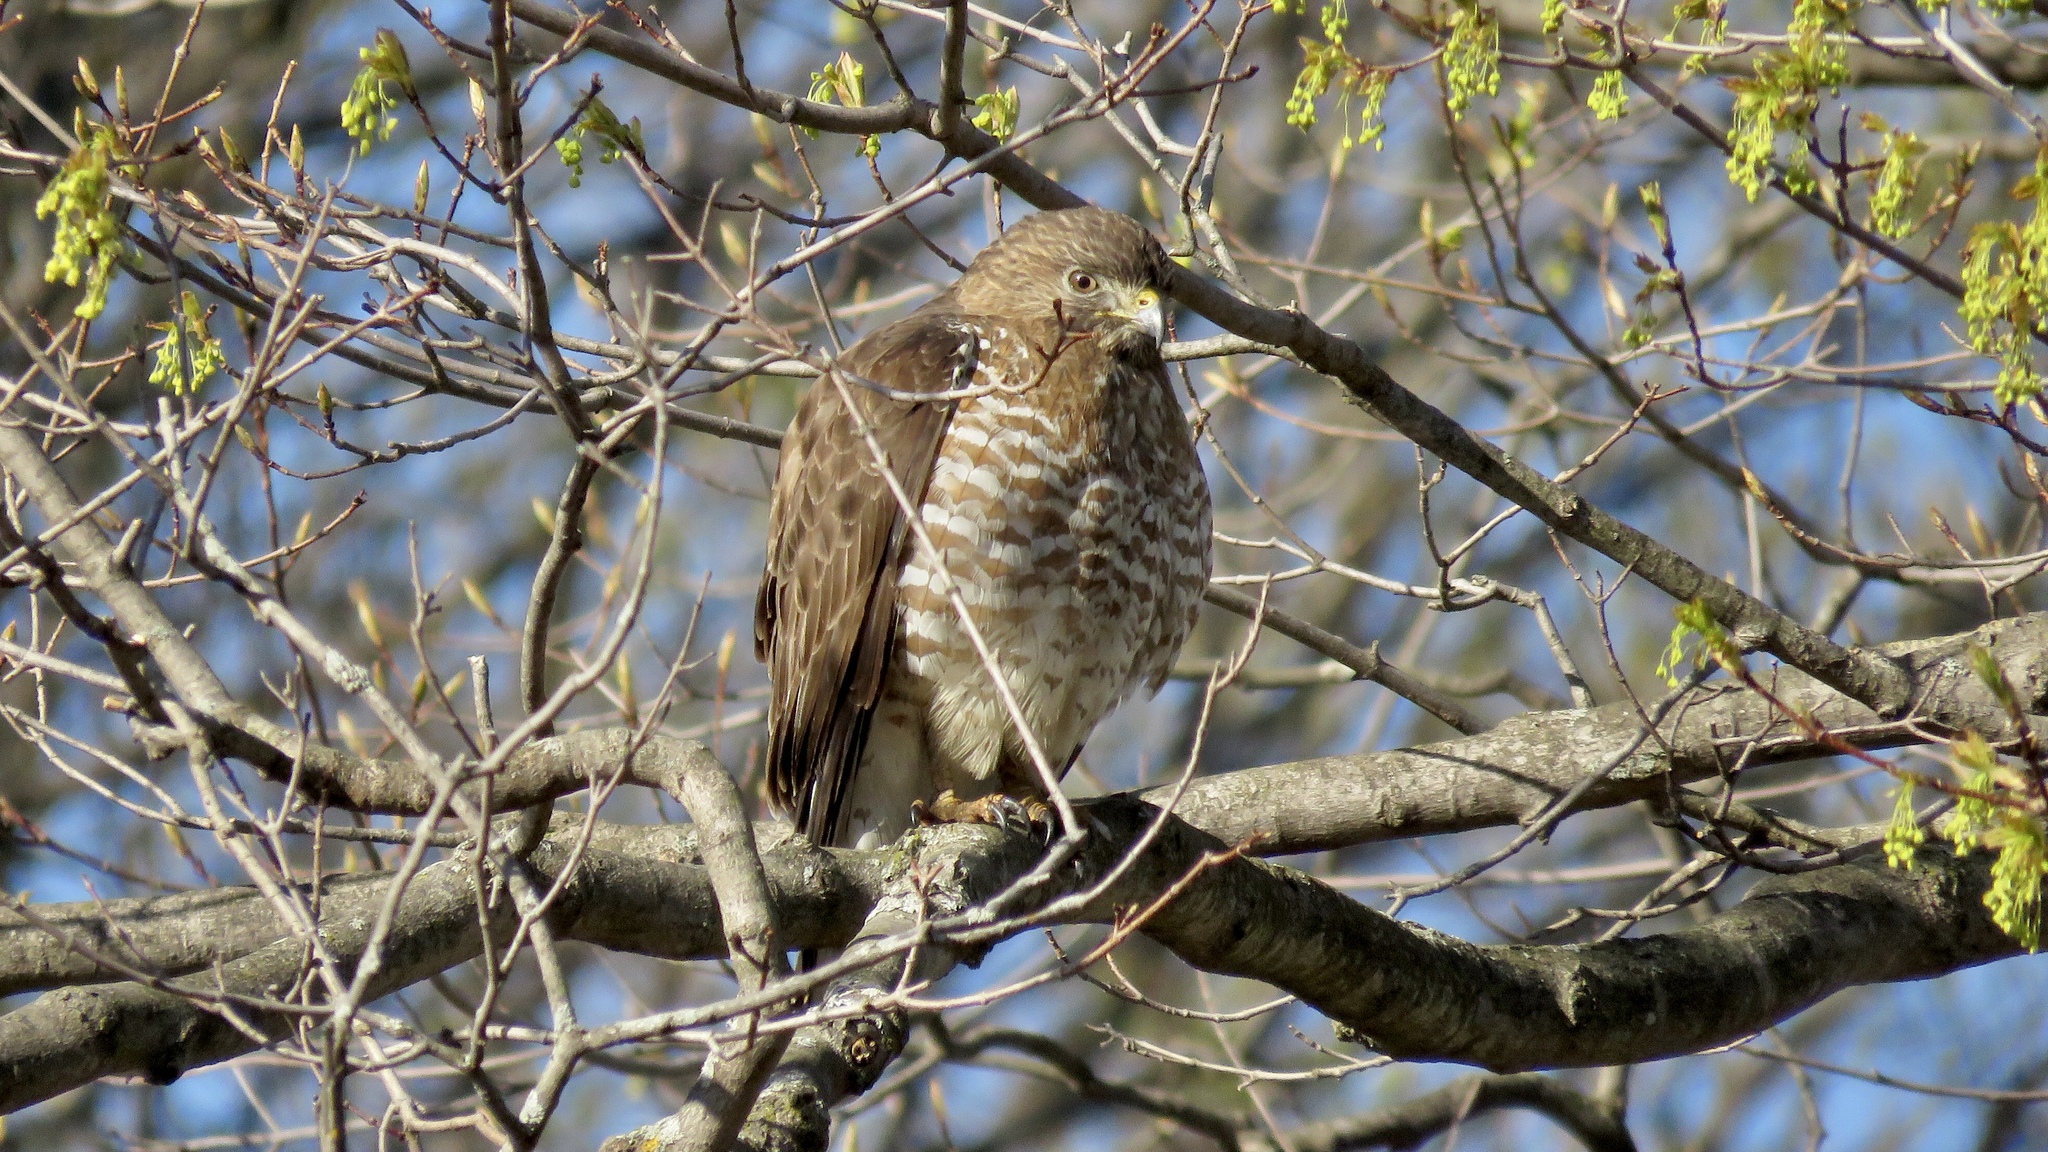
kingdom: Animalia
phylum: Chordata
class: Aves
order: Accipitriformes
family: Accipitridae
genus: Buteo
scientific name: Buteo platypterus
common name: Broad-winged hawk
